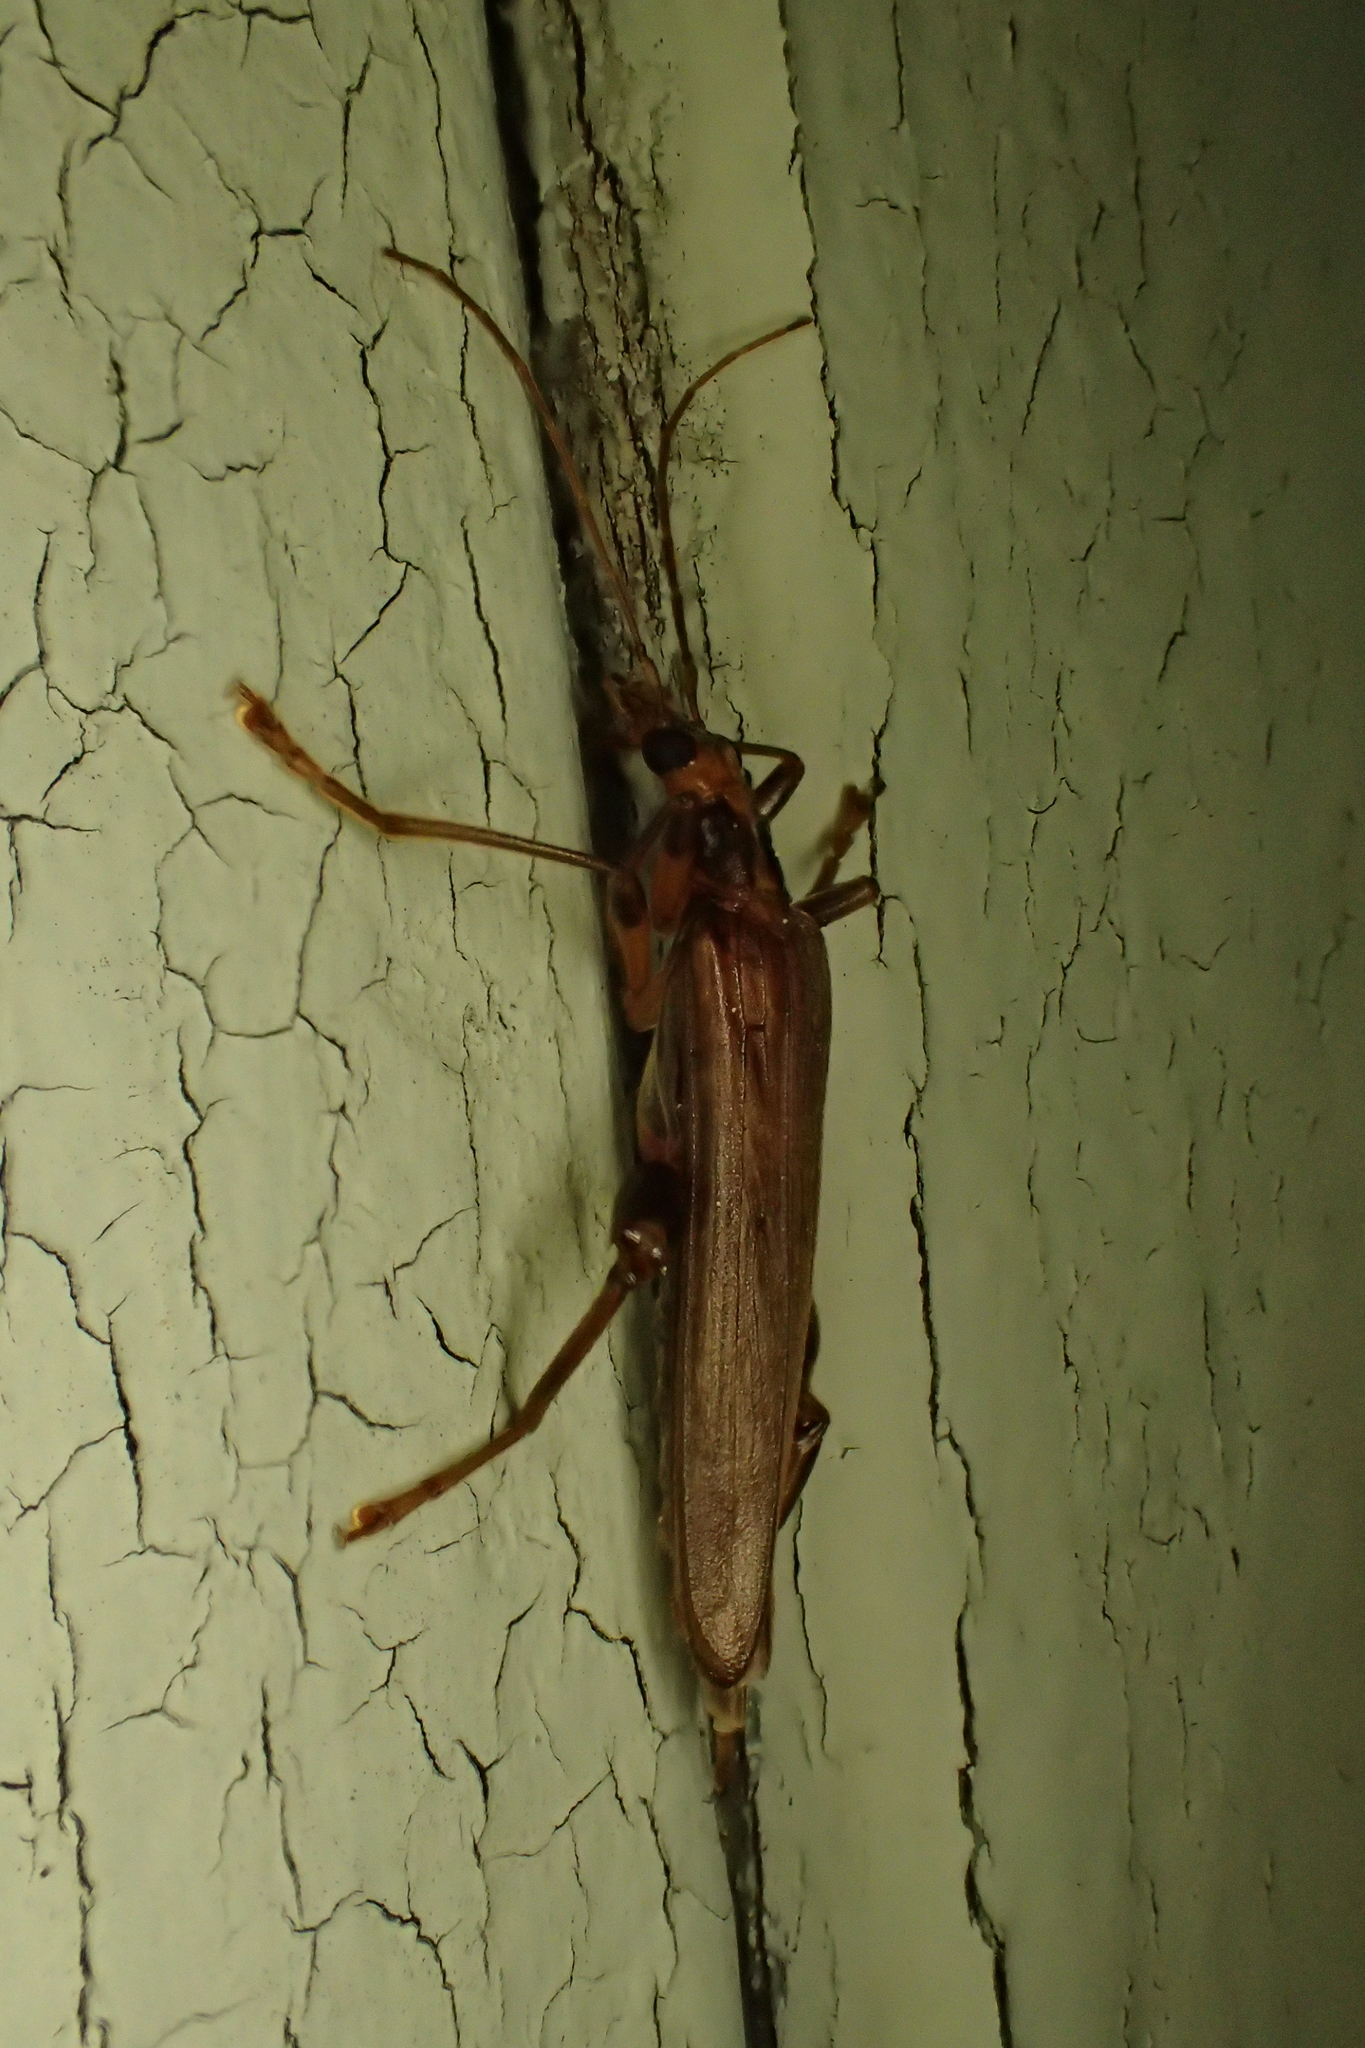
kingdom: Animalia
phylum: Arthropoda
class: Insecta
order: Coleoptera
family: Oedemeridae
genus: Oedemera
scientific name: Oedemera femoralis
